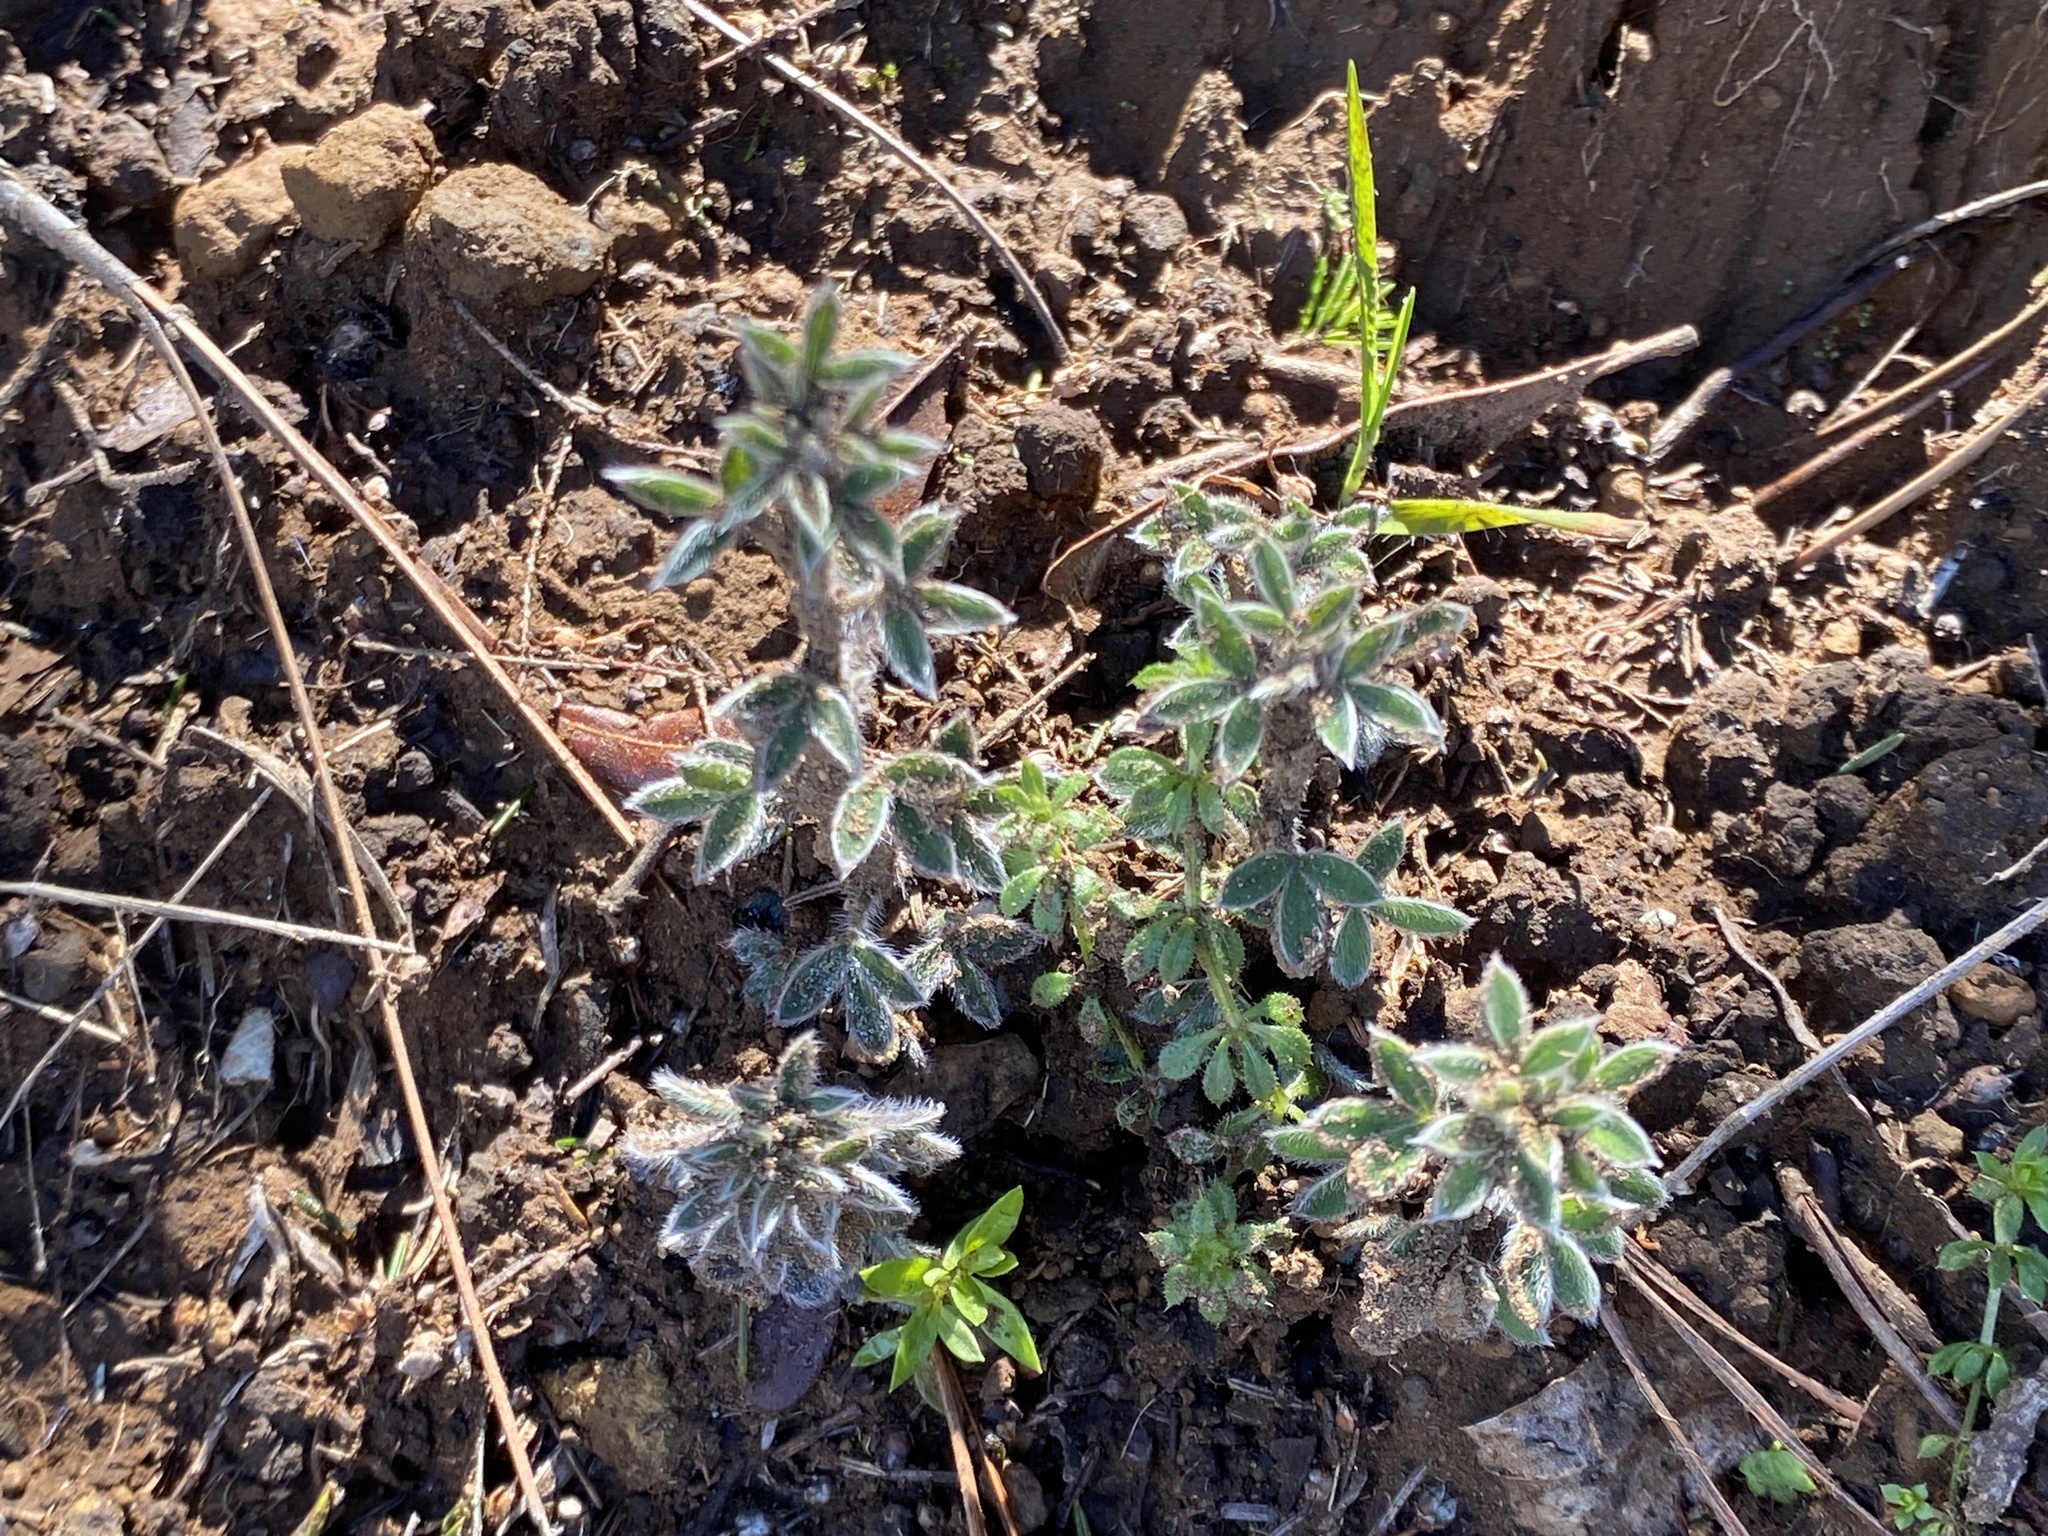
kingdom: Plantae
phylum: Tracheophyta
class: Magnoliopsida
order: Fabales
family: Fabaceae
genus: Genista
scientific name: Genista canariensis
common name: Canary broom
